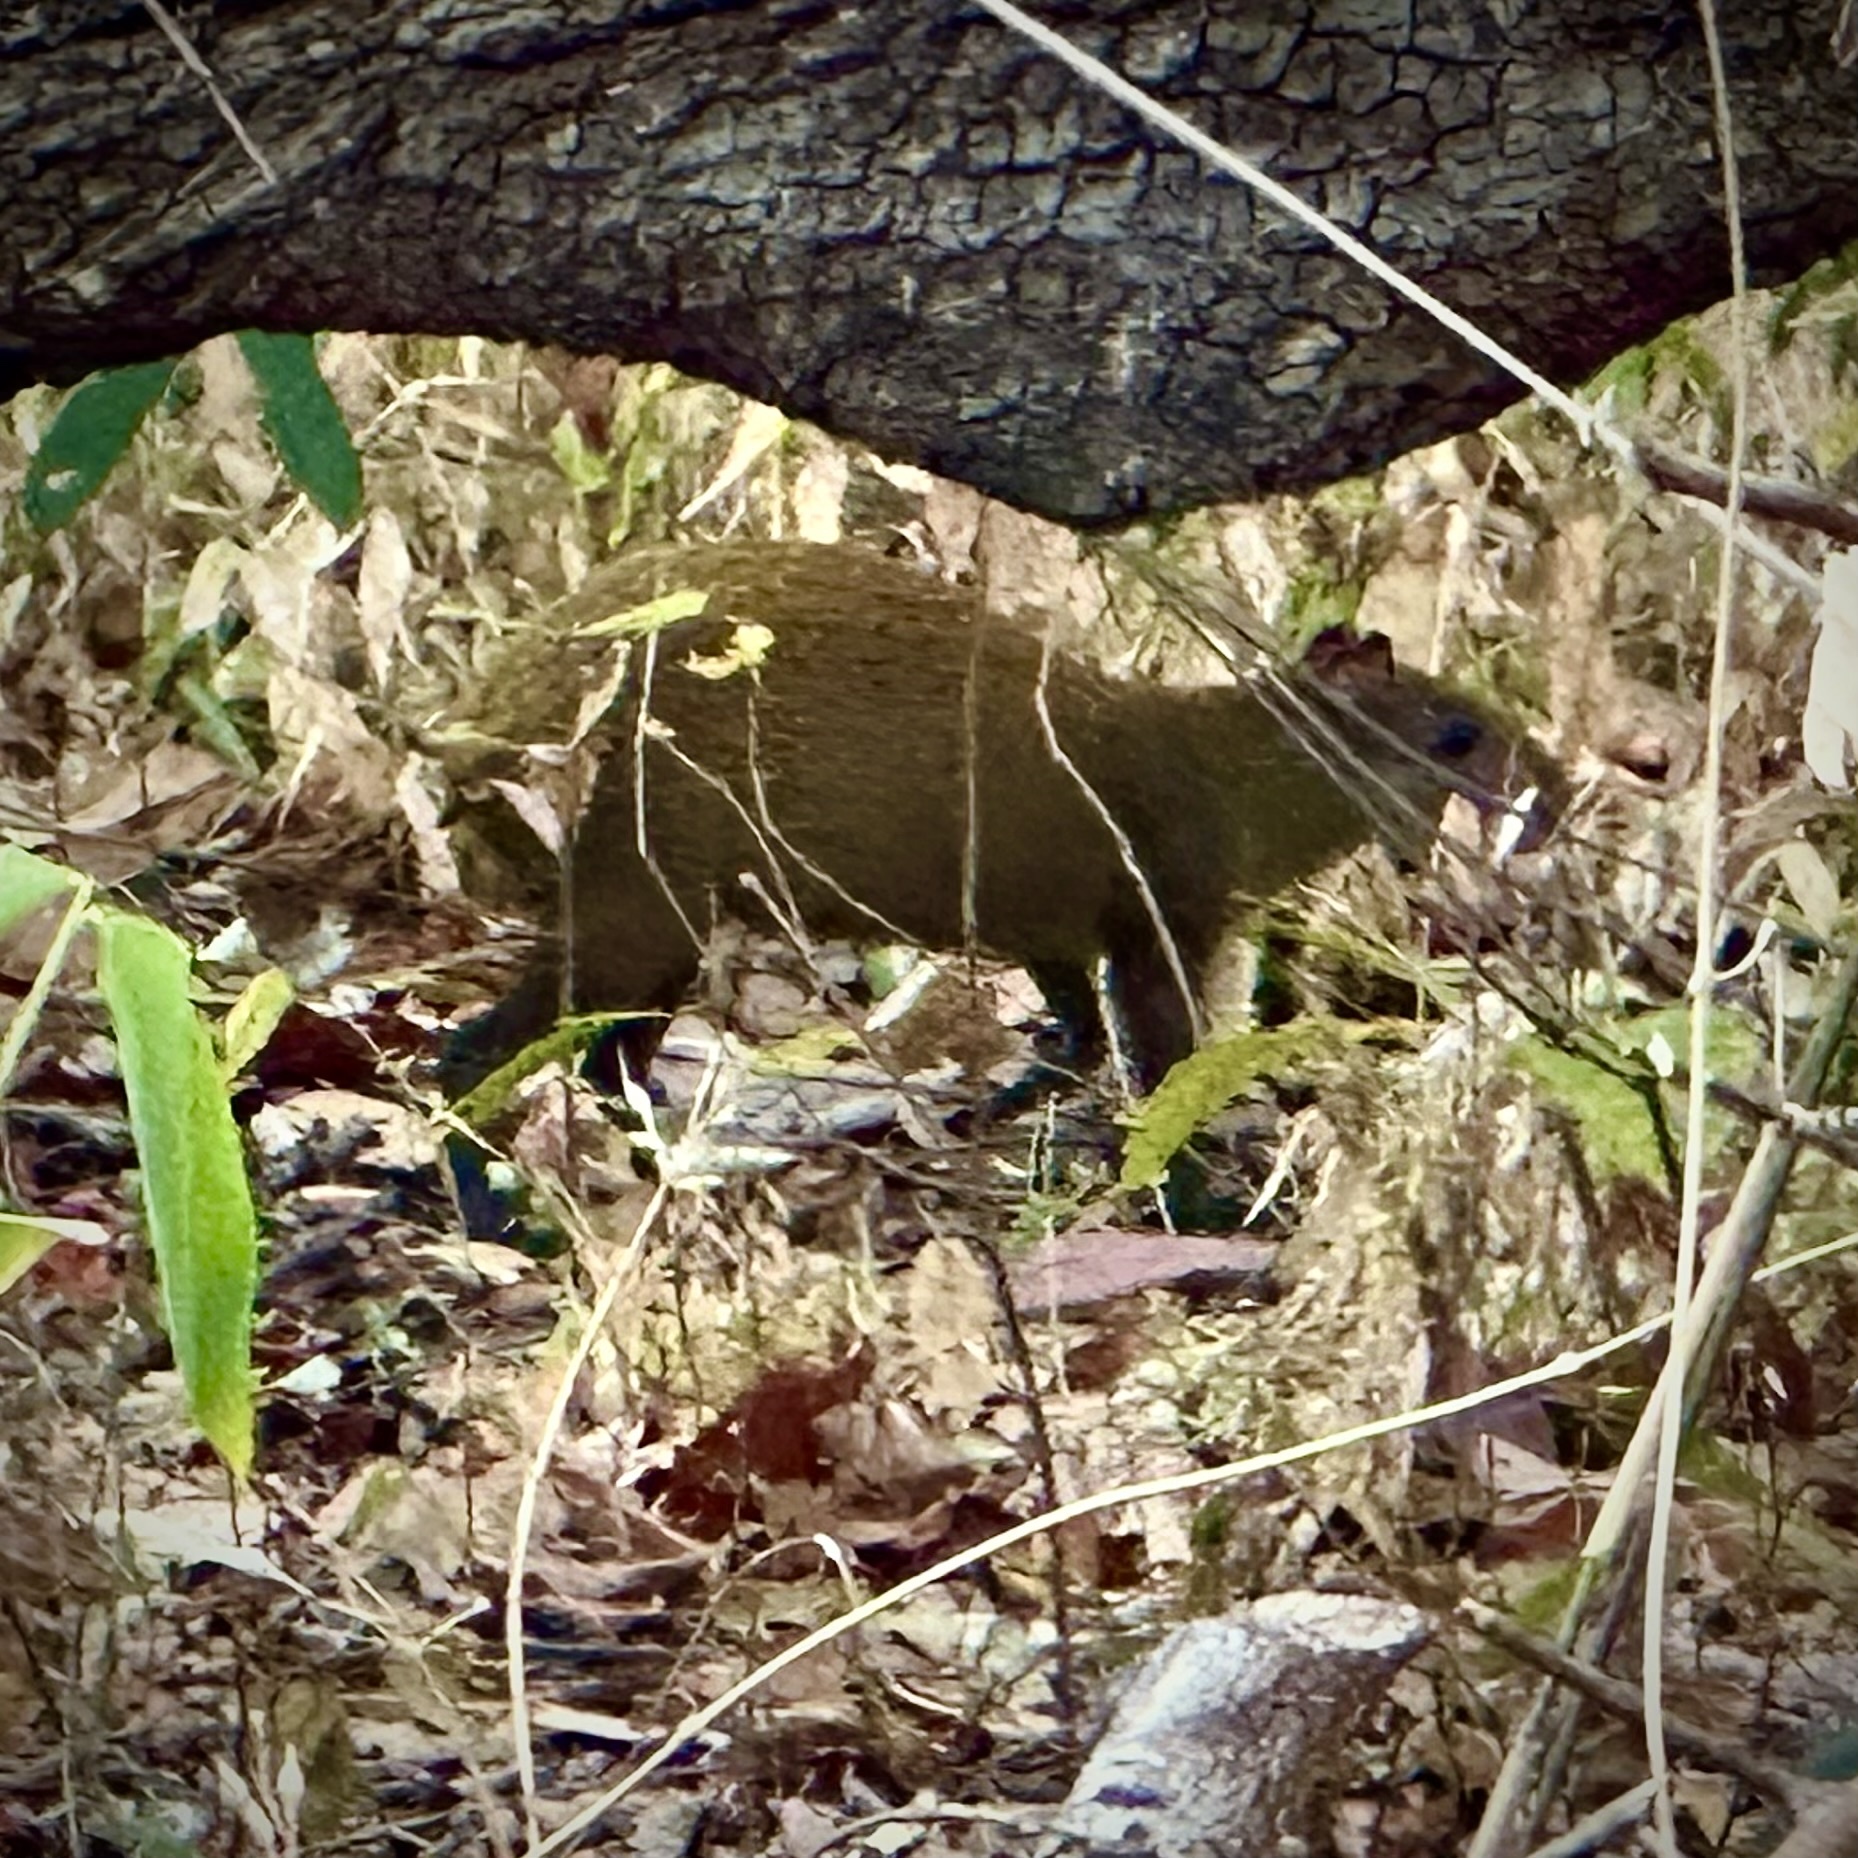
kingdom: Animalia
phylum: Chordata
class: Mammalia
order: Rodentia
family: Dasyproctidae
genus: Dasyprocta
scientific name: Dasyprocta punctata
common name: Central american agouti
